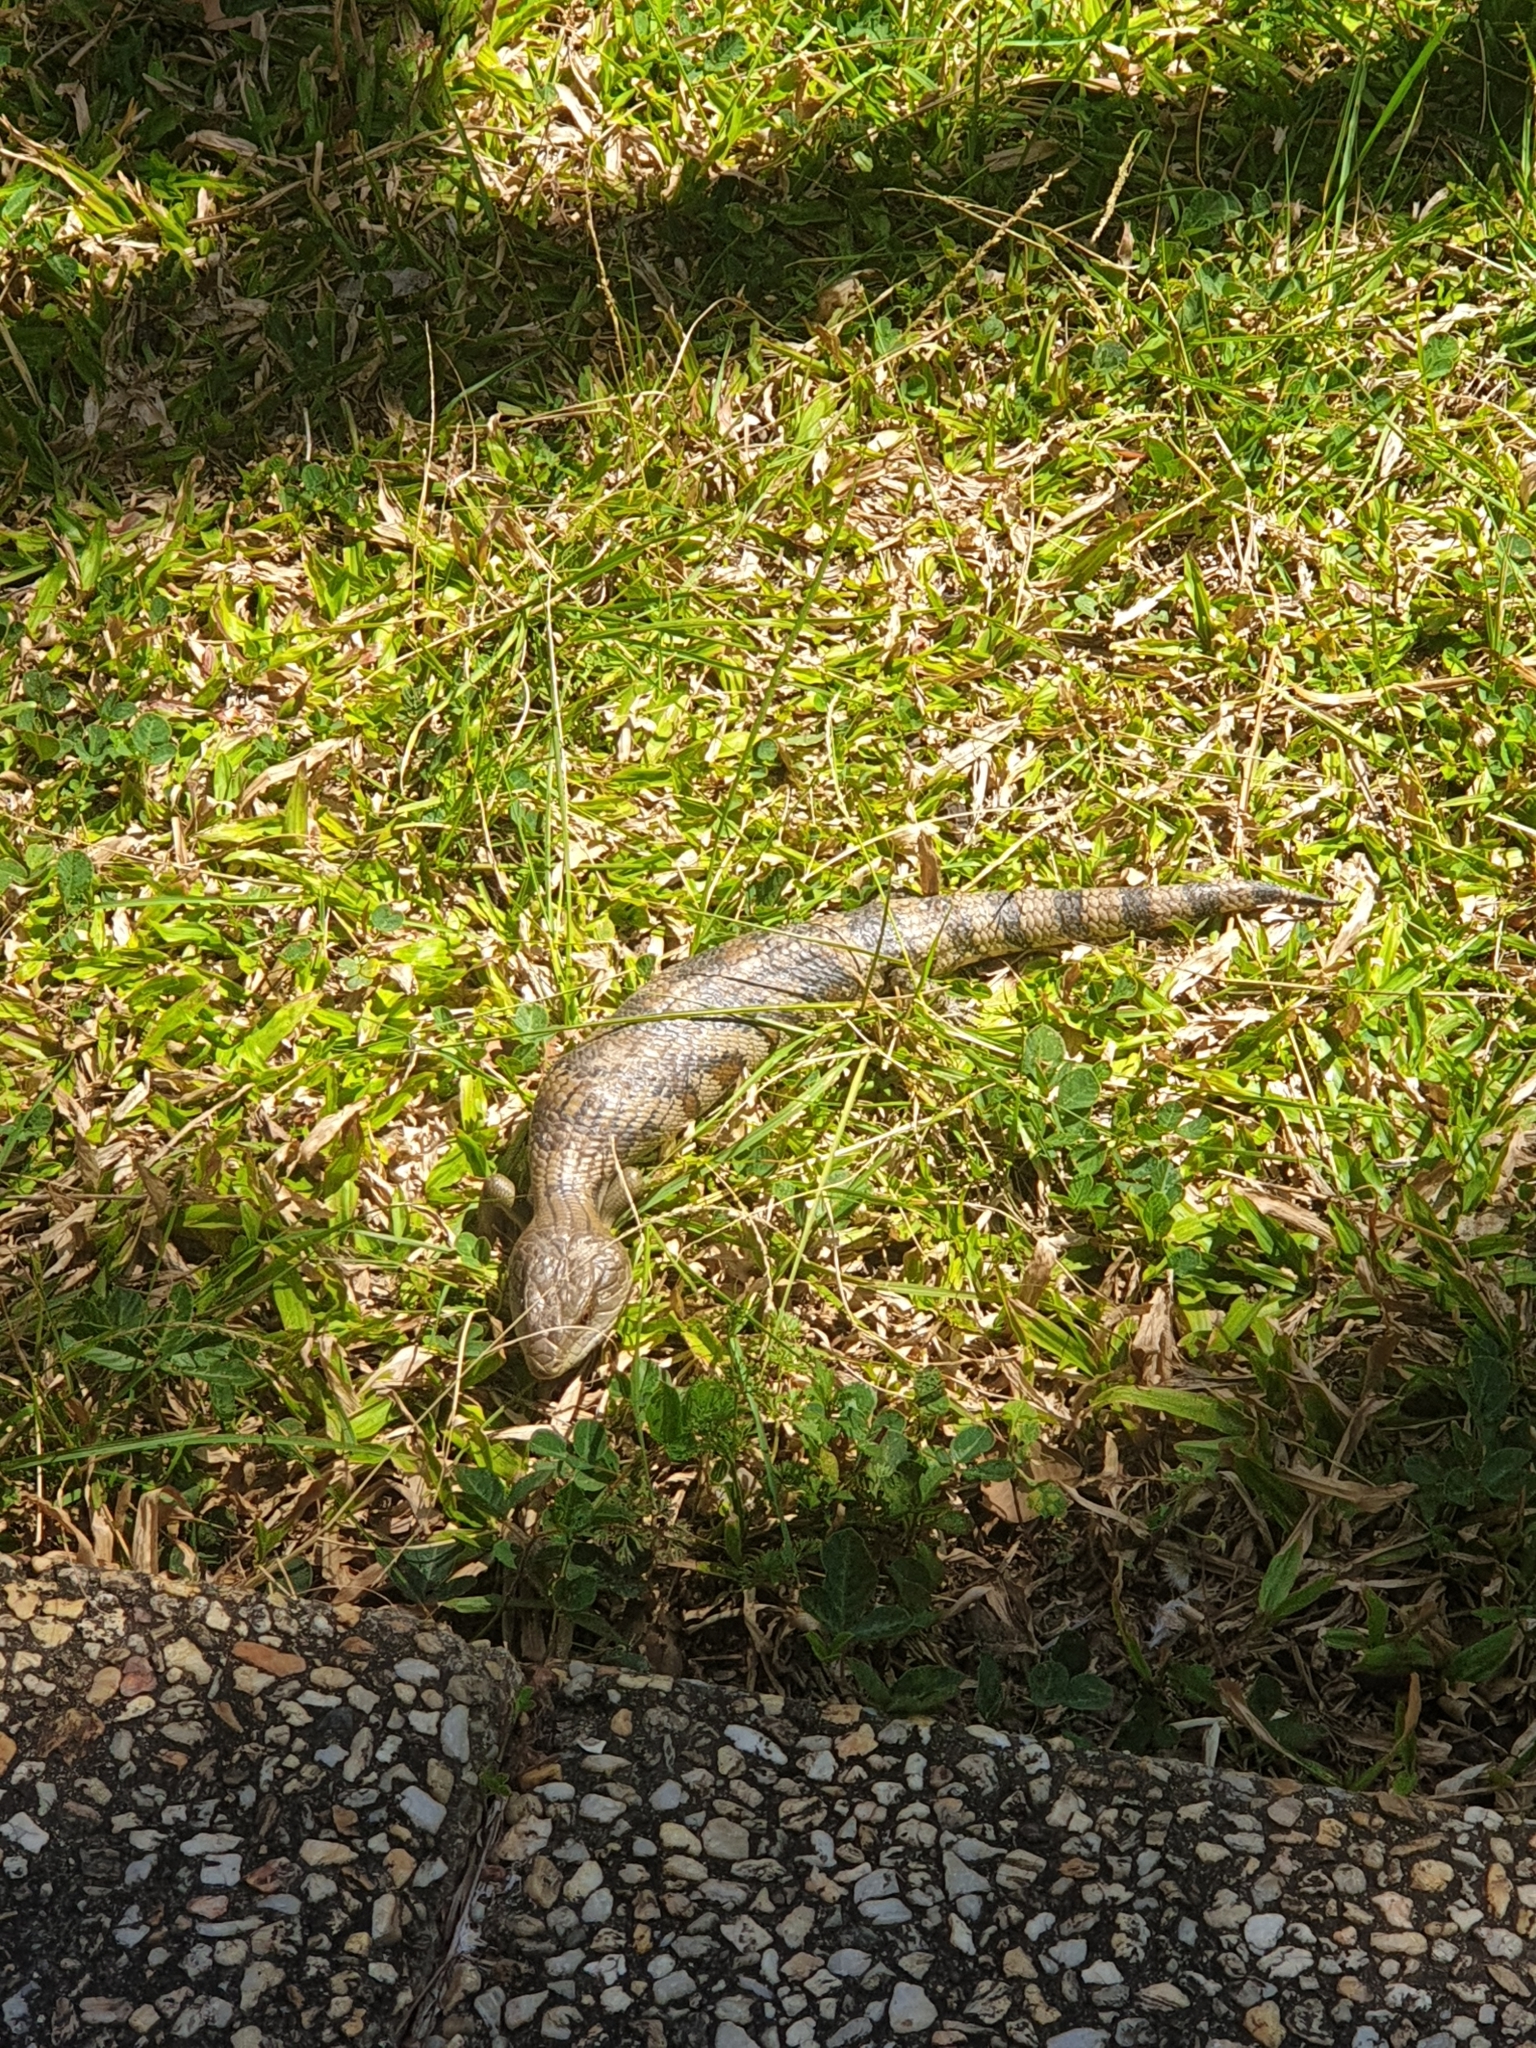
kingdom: Animalia
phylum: Chordata
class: Squamata
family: Scincidae
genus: Tiliqua
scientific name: Tiliqua scincoides
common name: Common bluetongue
